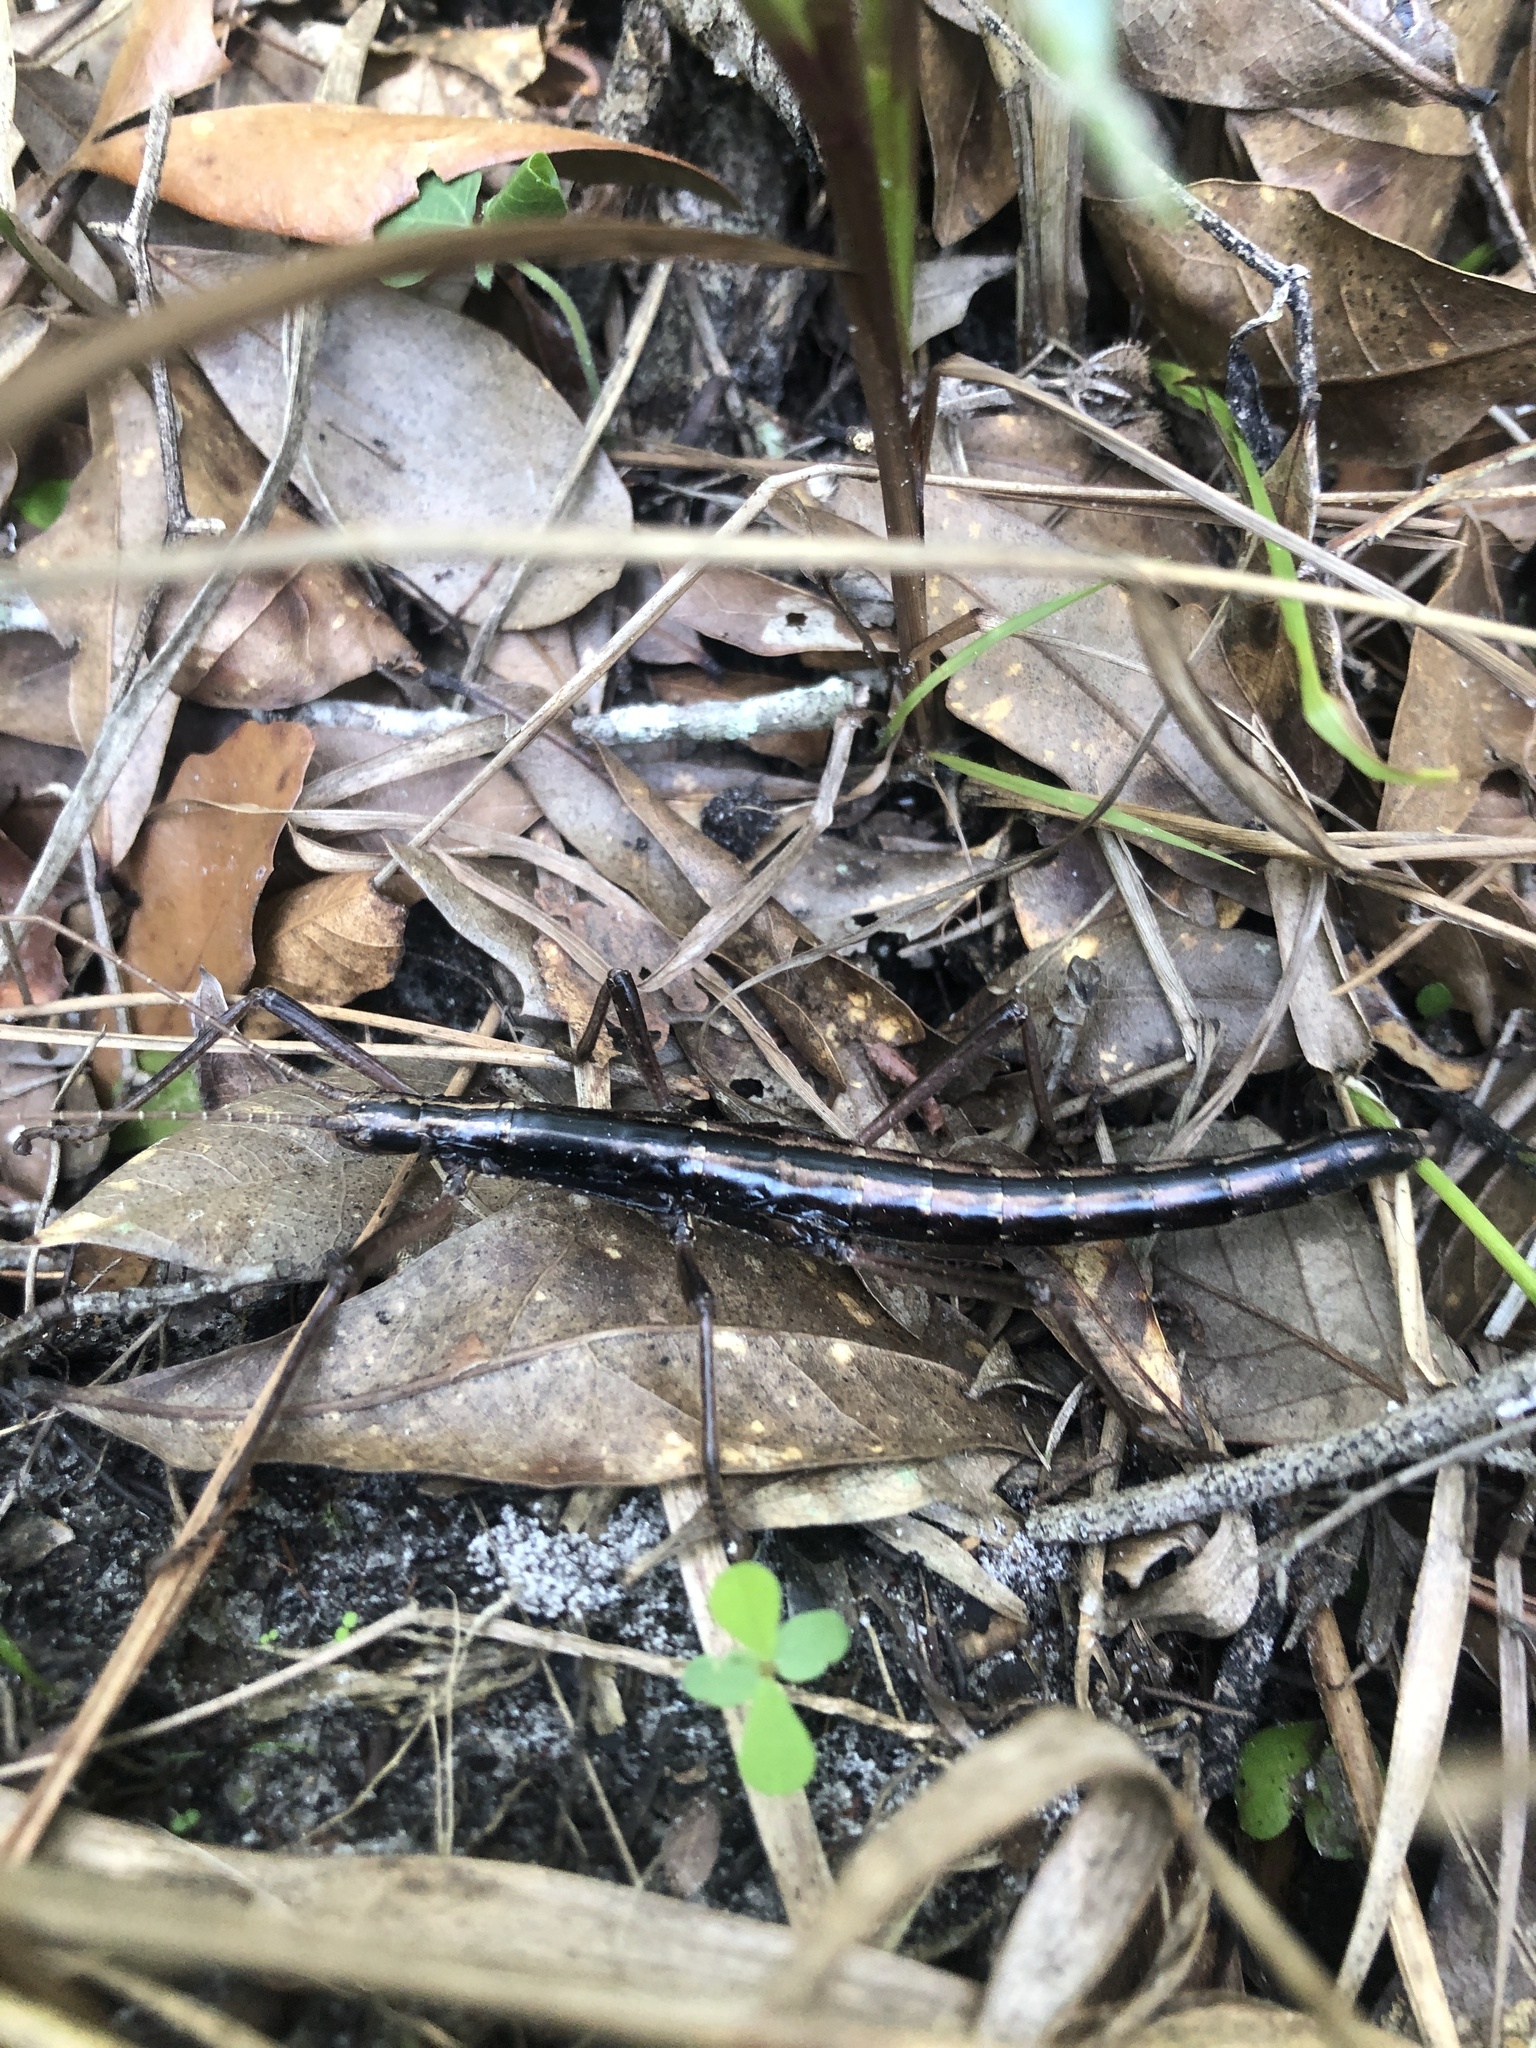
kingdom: Animalia
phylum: Arthropoda
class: Insecta
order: Phasmida
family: Pseudophasmatidae
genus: Anisomorpha
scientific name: Anisomorpha buprestoides
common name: Florida stick insect
